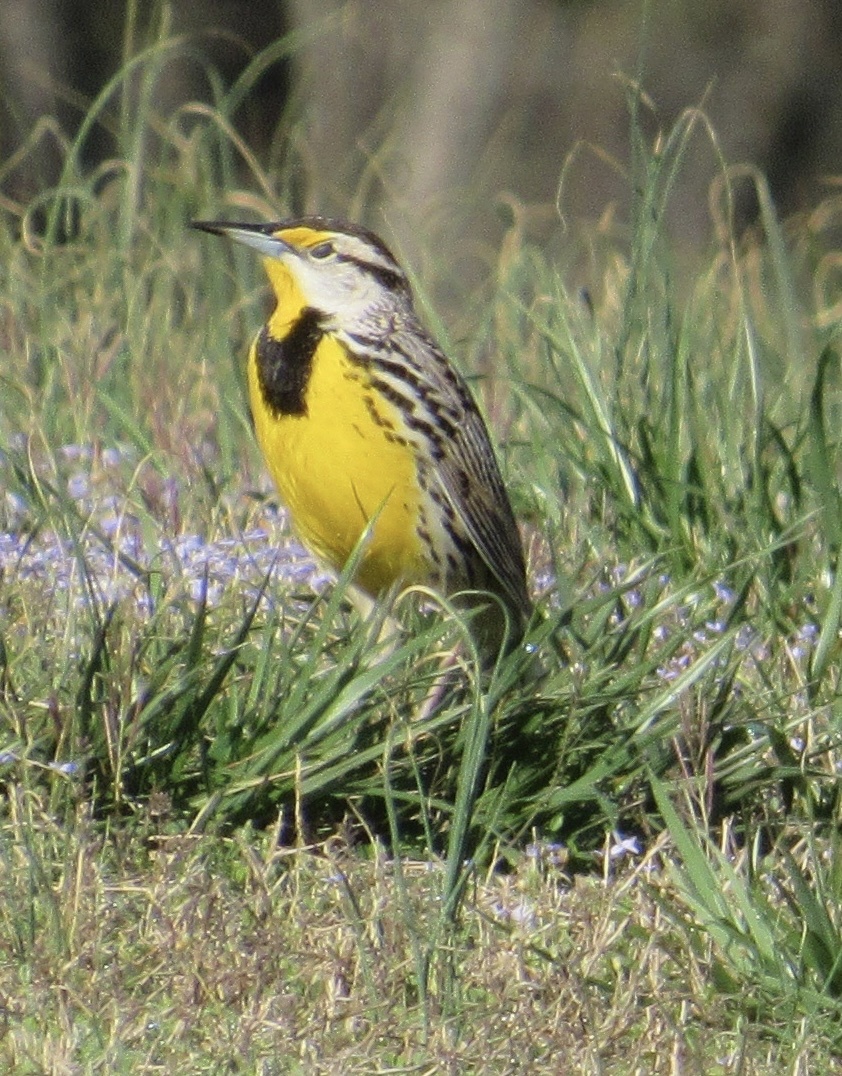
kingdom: Animalia
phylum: Chordata
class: Aves
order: Passeriformes
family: Icteridae
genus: Sturnella
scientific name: Sturnella magna
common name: Eastern meadowlark
